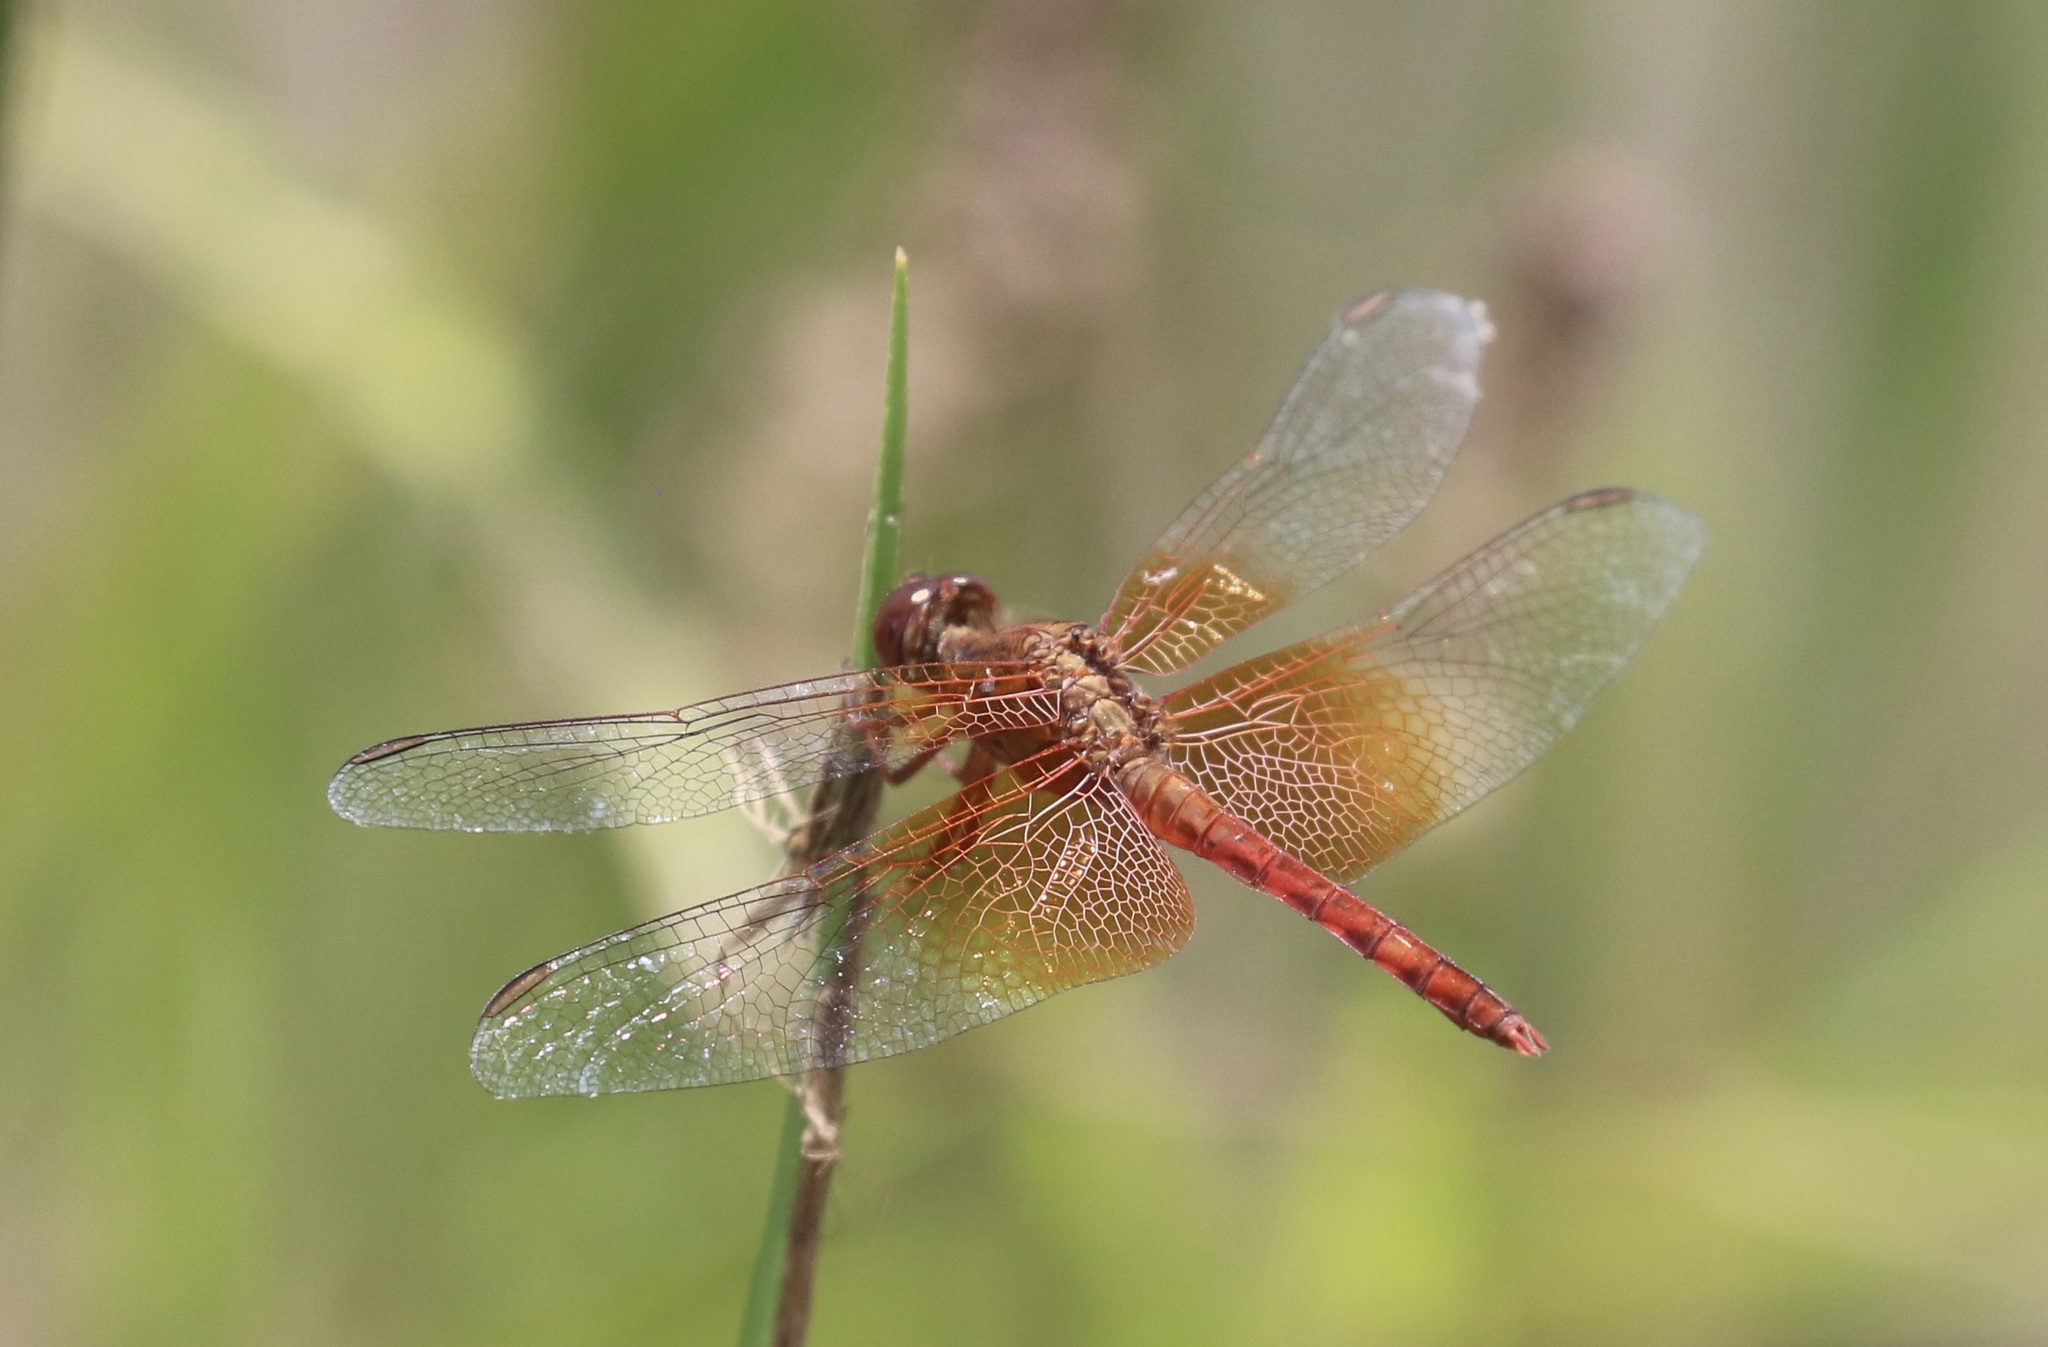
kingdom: Animalia
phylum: Arthropoda
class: Insecta
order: Odonata
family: Libellulidae
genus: Erythrodiplax
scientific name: Erythrodiplax leticia
